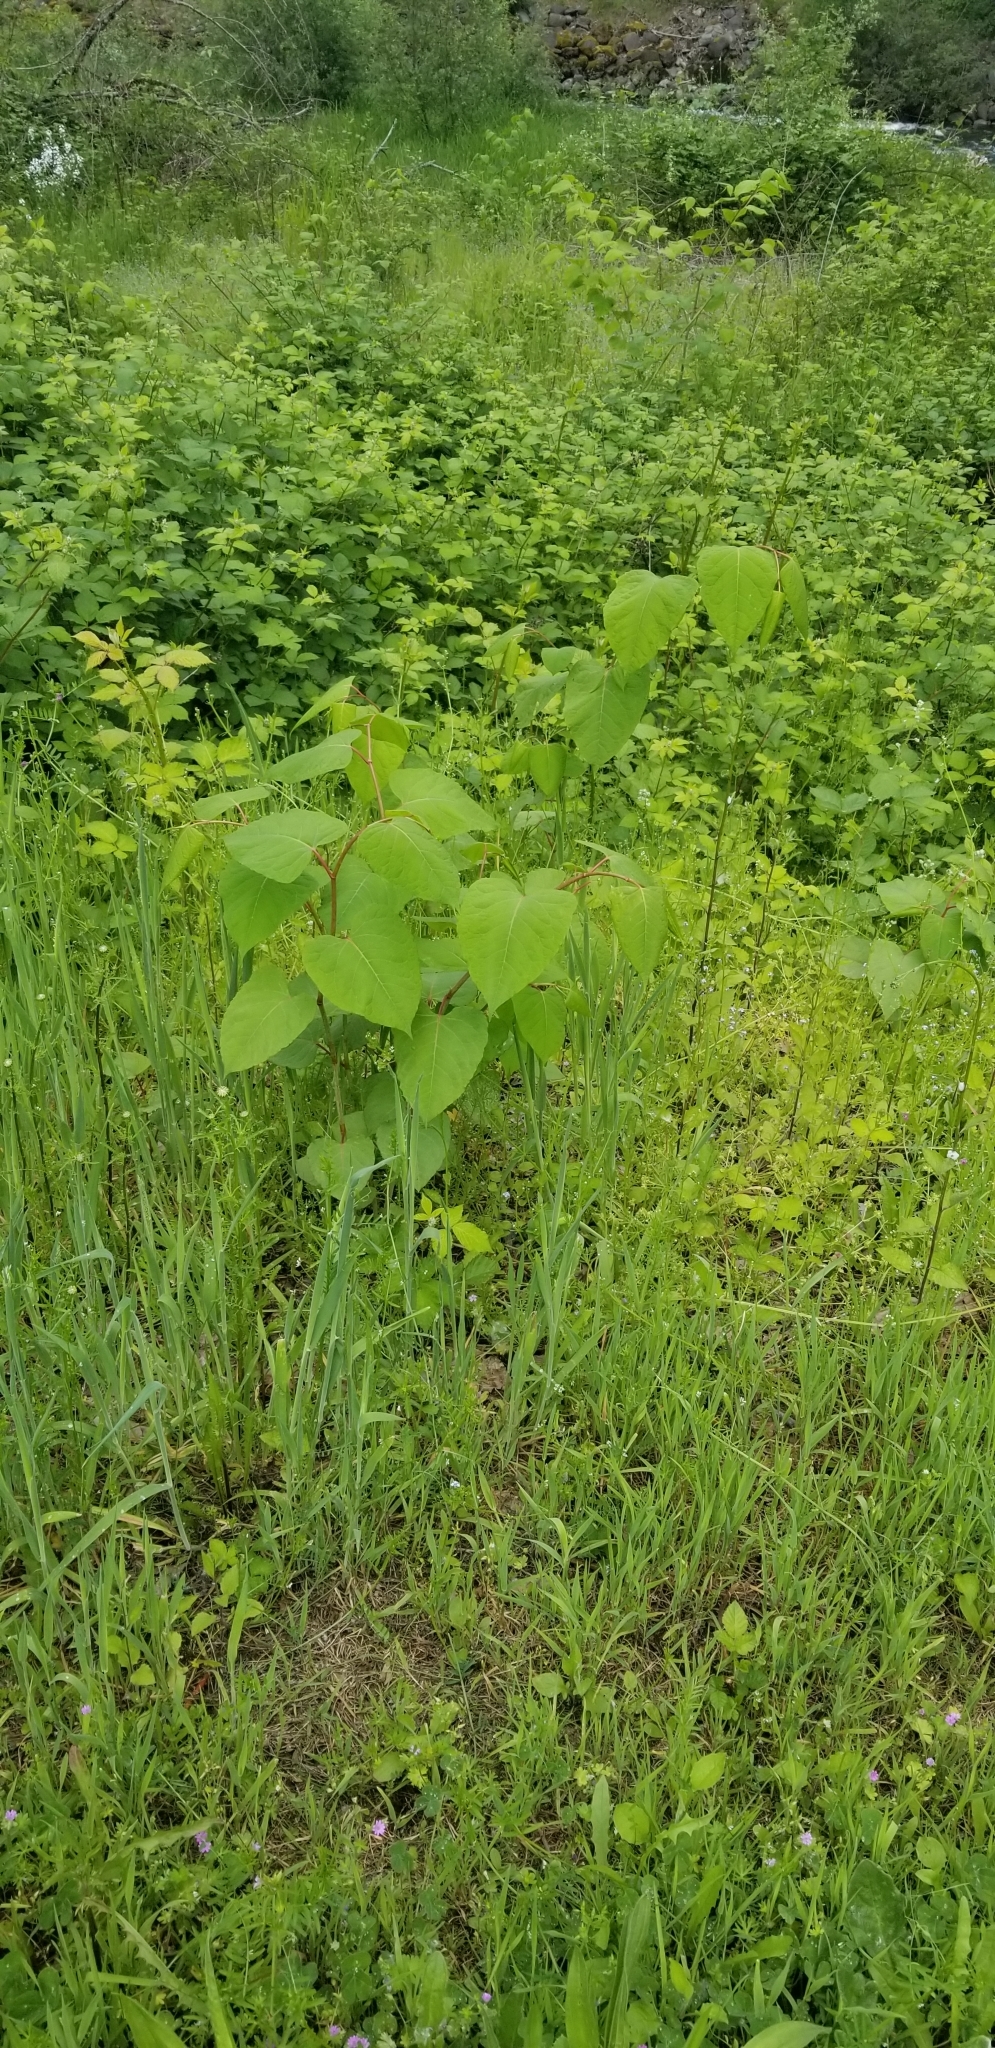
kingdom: Plantae
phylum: Tracheophyta
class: Magnoliopsida
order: Caryophyllales
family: Polygonaceae
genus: Reynoutria
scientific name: Reynoutria bohemica
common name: Bohemian knotweed
